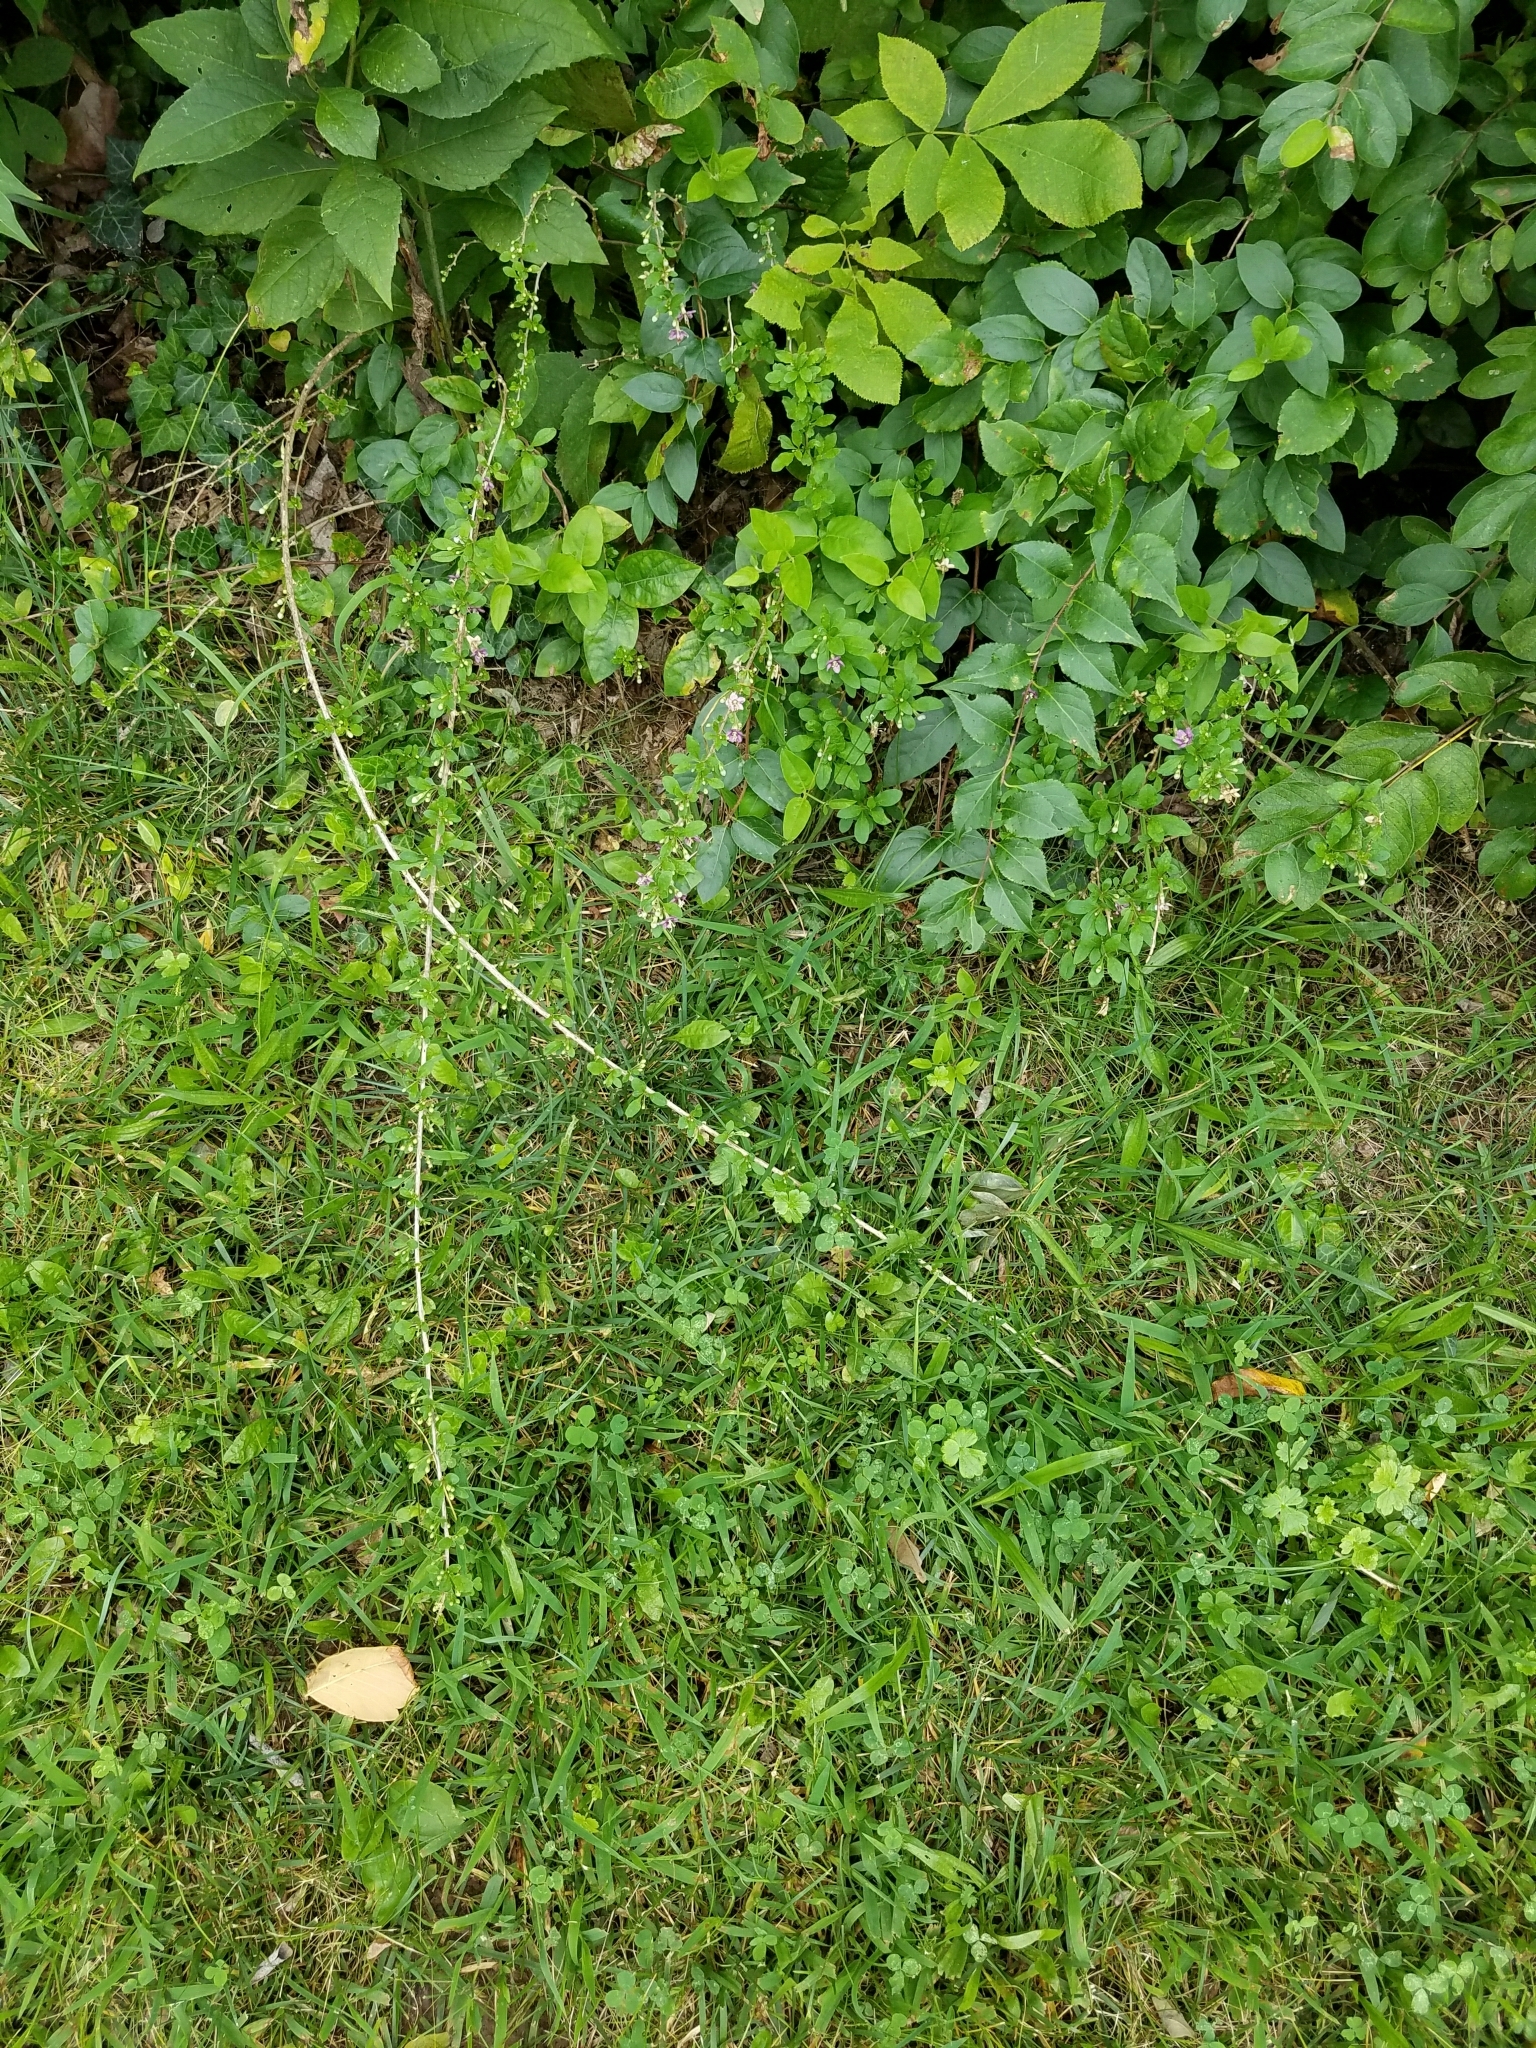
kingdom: Plantae
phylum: Tracheophyta
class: Magnoliopsida
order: Solanales
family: Solanaceae
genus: Lycium
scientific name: Lycium barbarum
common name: Duke of argyll's teaplant
